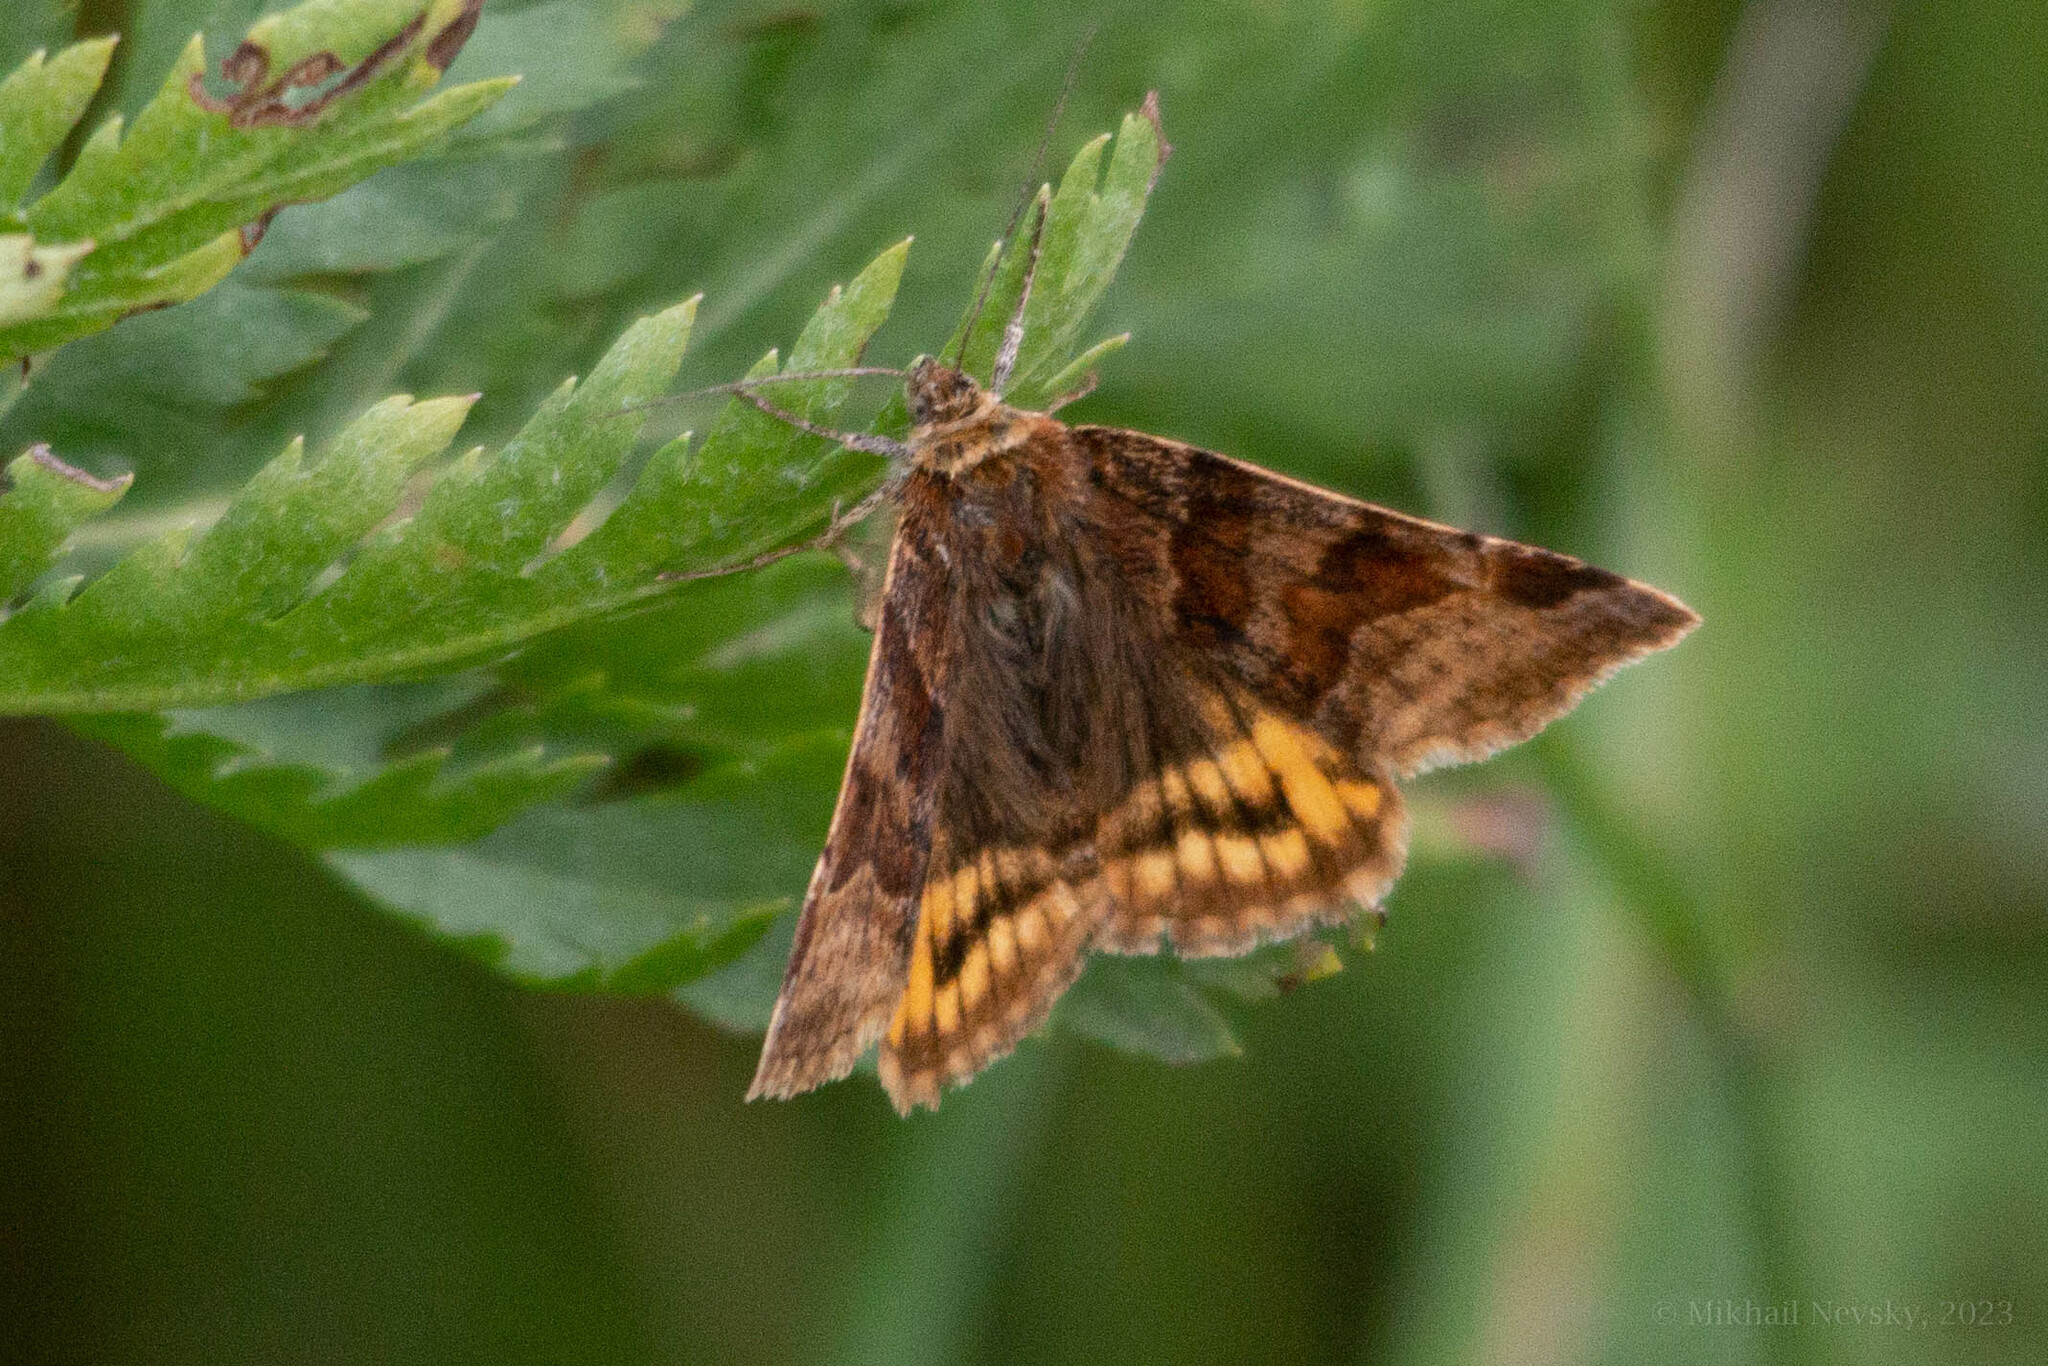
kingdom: Animalia
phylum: Arthropoda
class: Insecta
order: Lepidoptera
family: Erebidae
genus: Euclidia
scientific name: Euclidia glyphica
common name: Burnet companion
